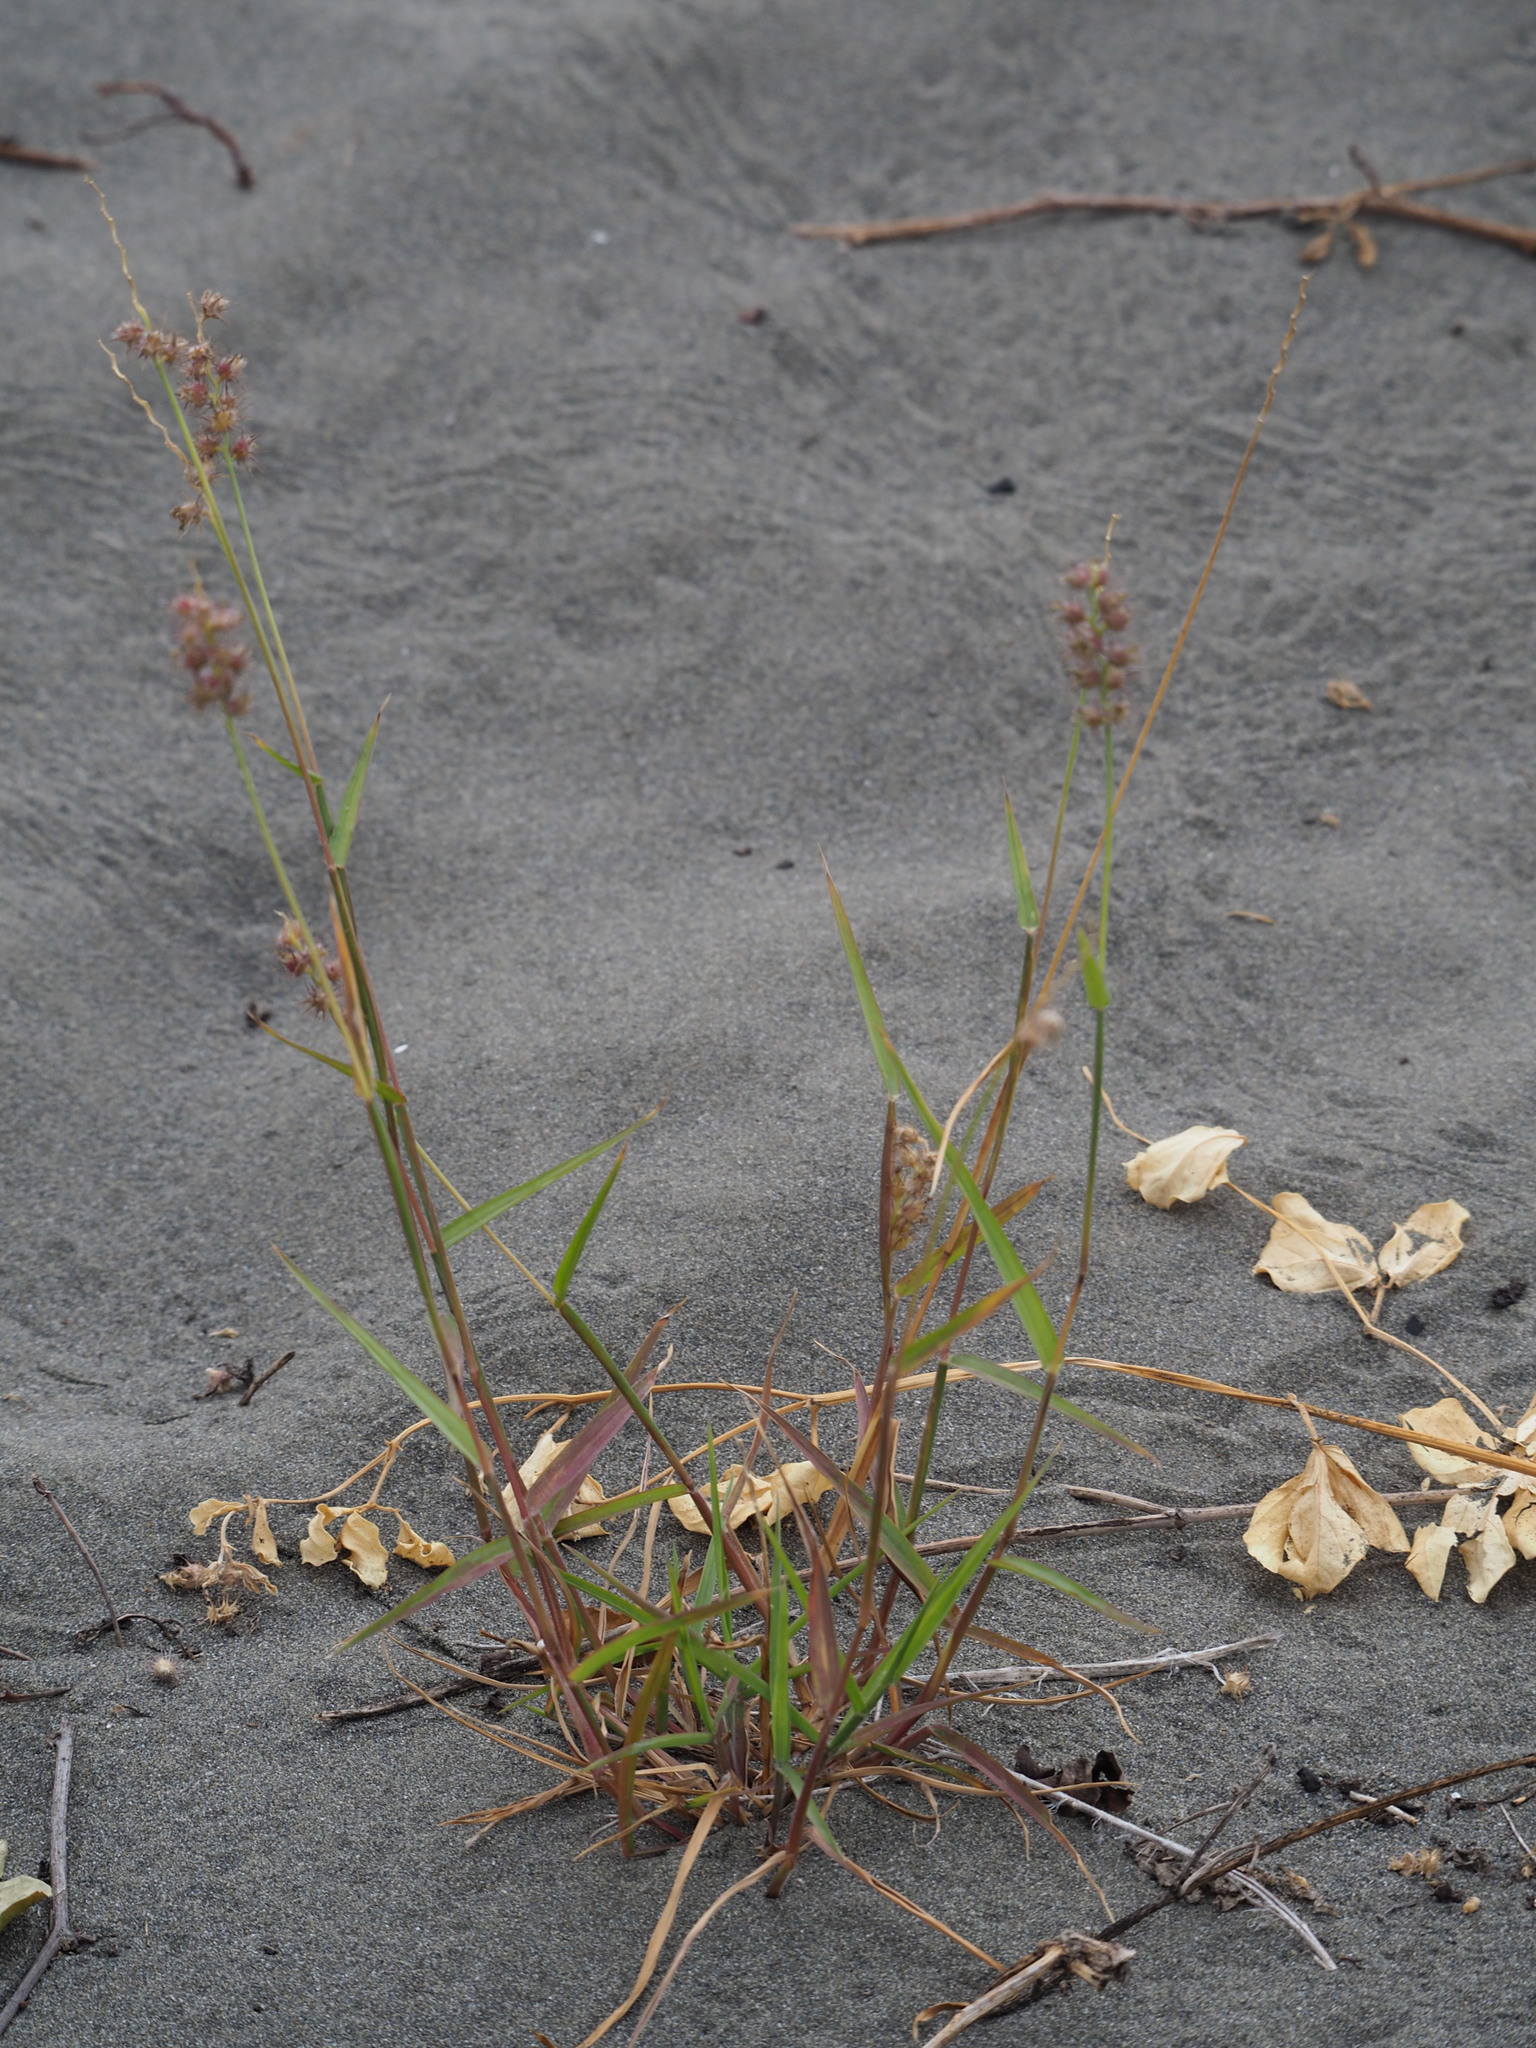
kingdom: Plantae
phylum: Tracheophyta
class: Liliopsida
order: Poales
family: Poaceae
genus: Cenchrus
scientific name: Cenchrus echinatus
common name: Southern sandbur
